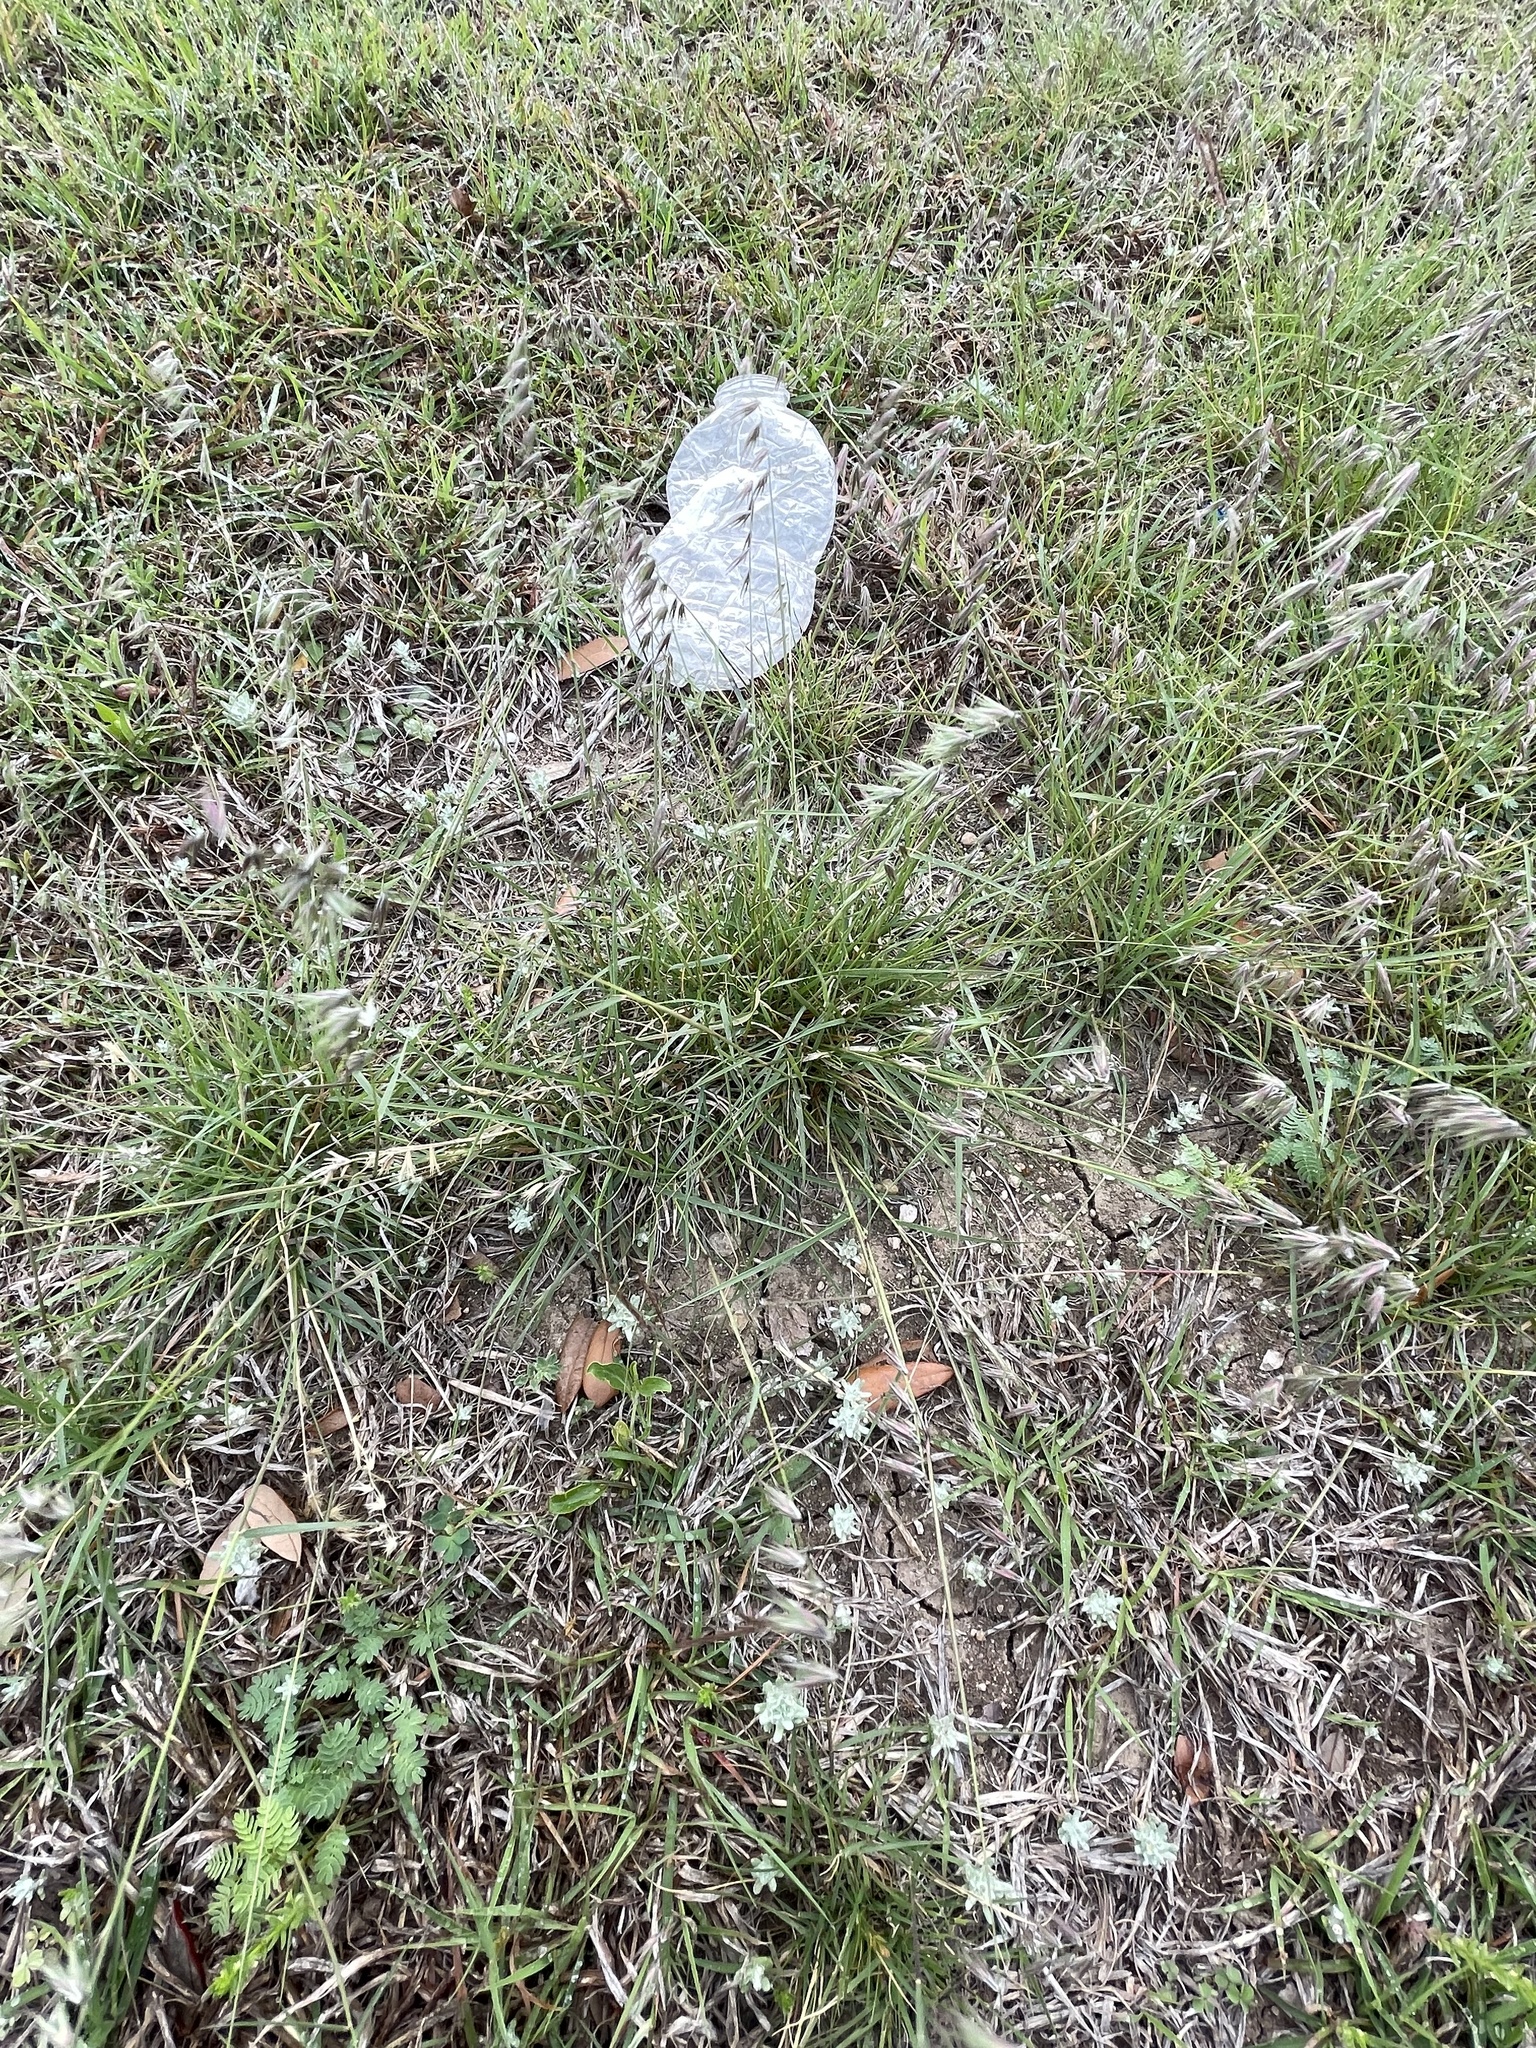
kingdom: Plantae
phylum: Tracheophyta
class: Liliopsida
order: Poales
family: Poaceae
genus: Bouteloua
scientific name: Bouteloua rigidiseta
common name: Texas grama
